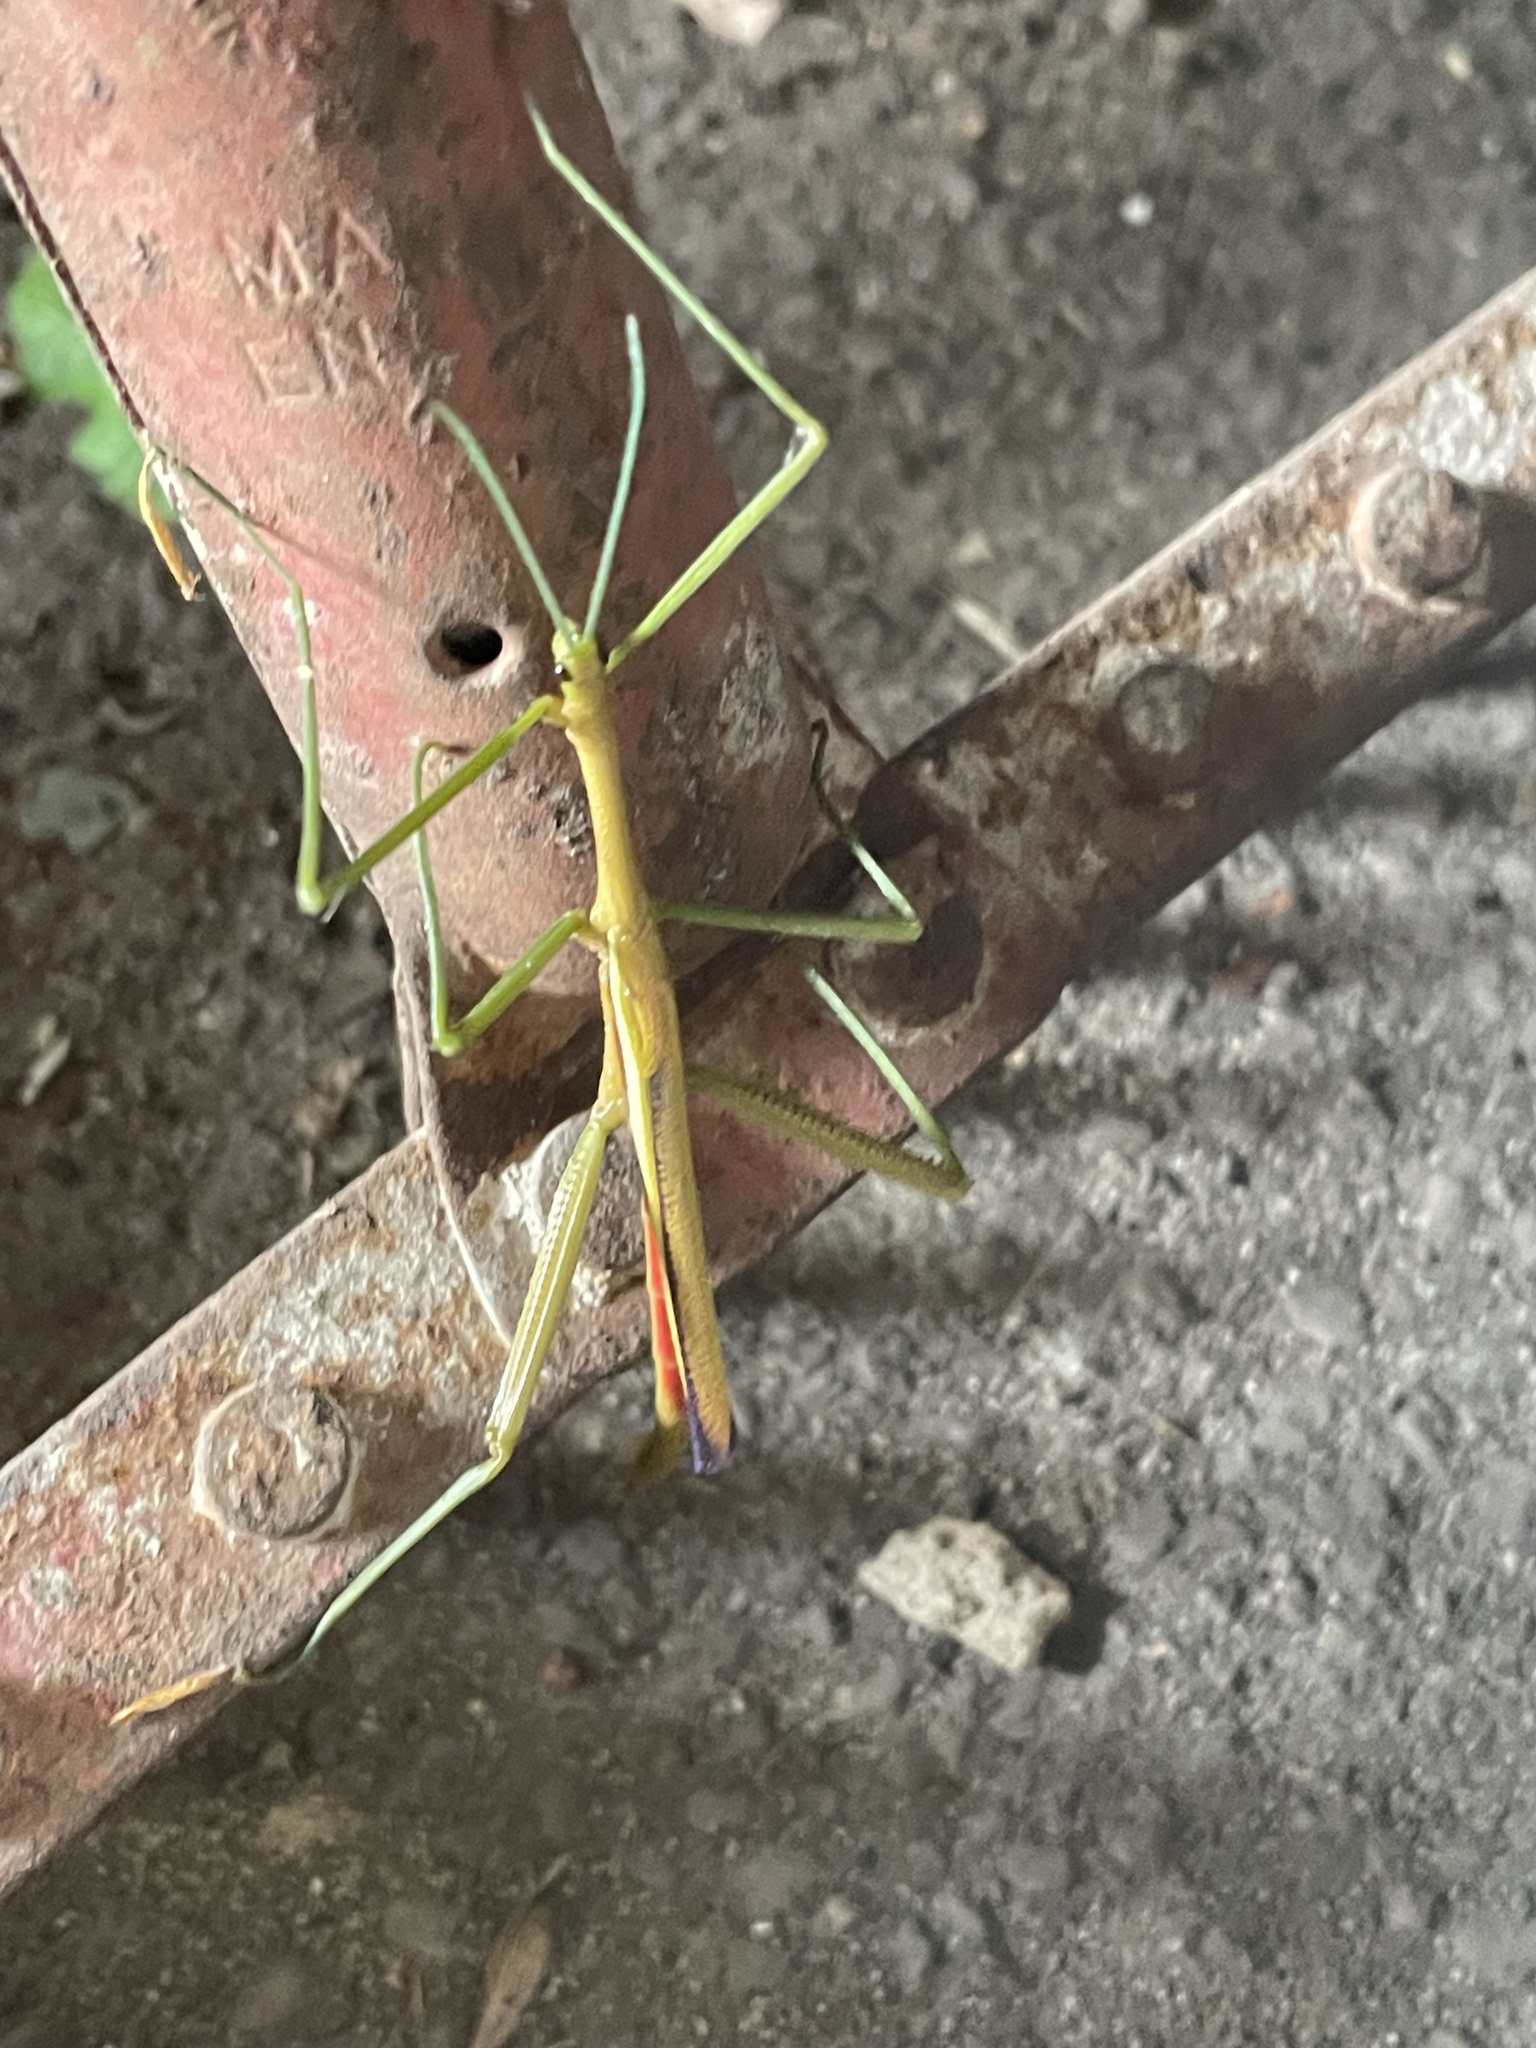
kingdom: Animalia
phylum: Arthropoda
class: Insecta
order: Phasmida
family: Phasmatidae
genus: Didymuria
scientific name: Didymuria violescens
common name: Spur-legged stick-insect
